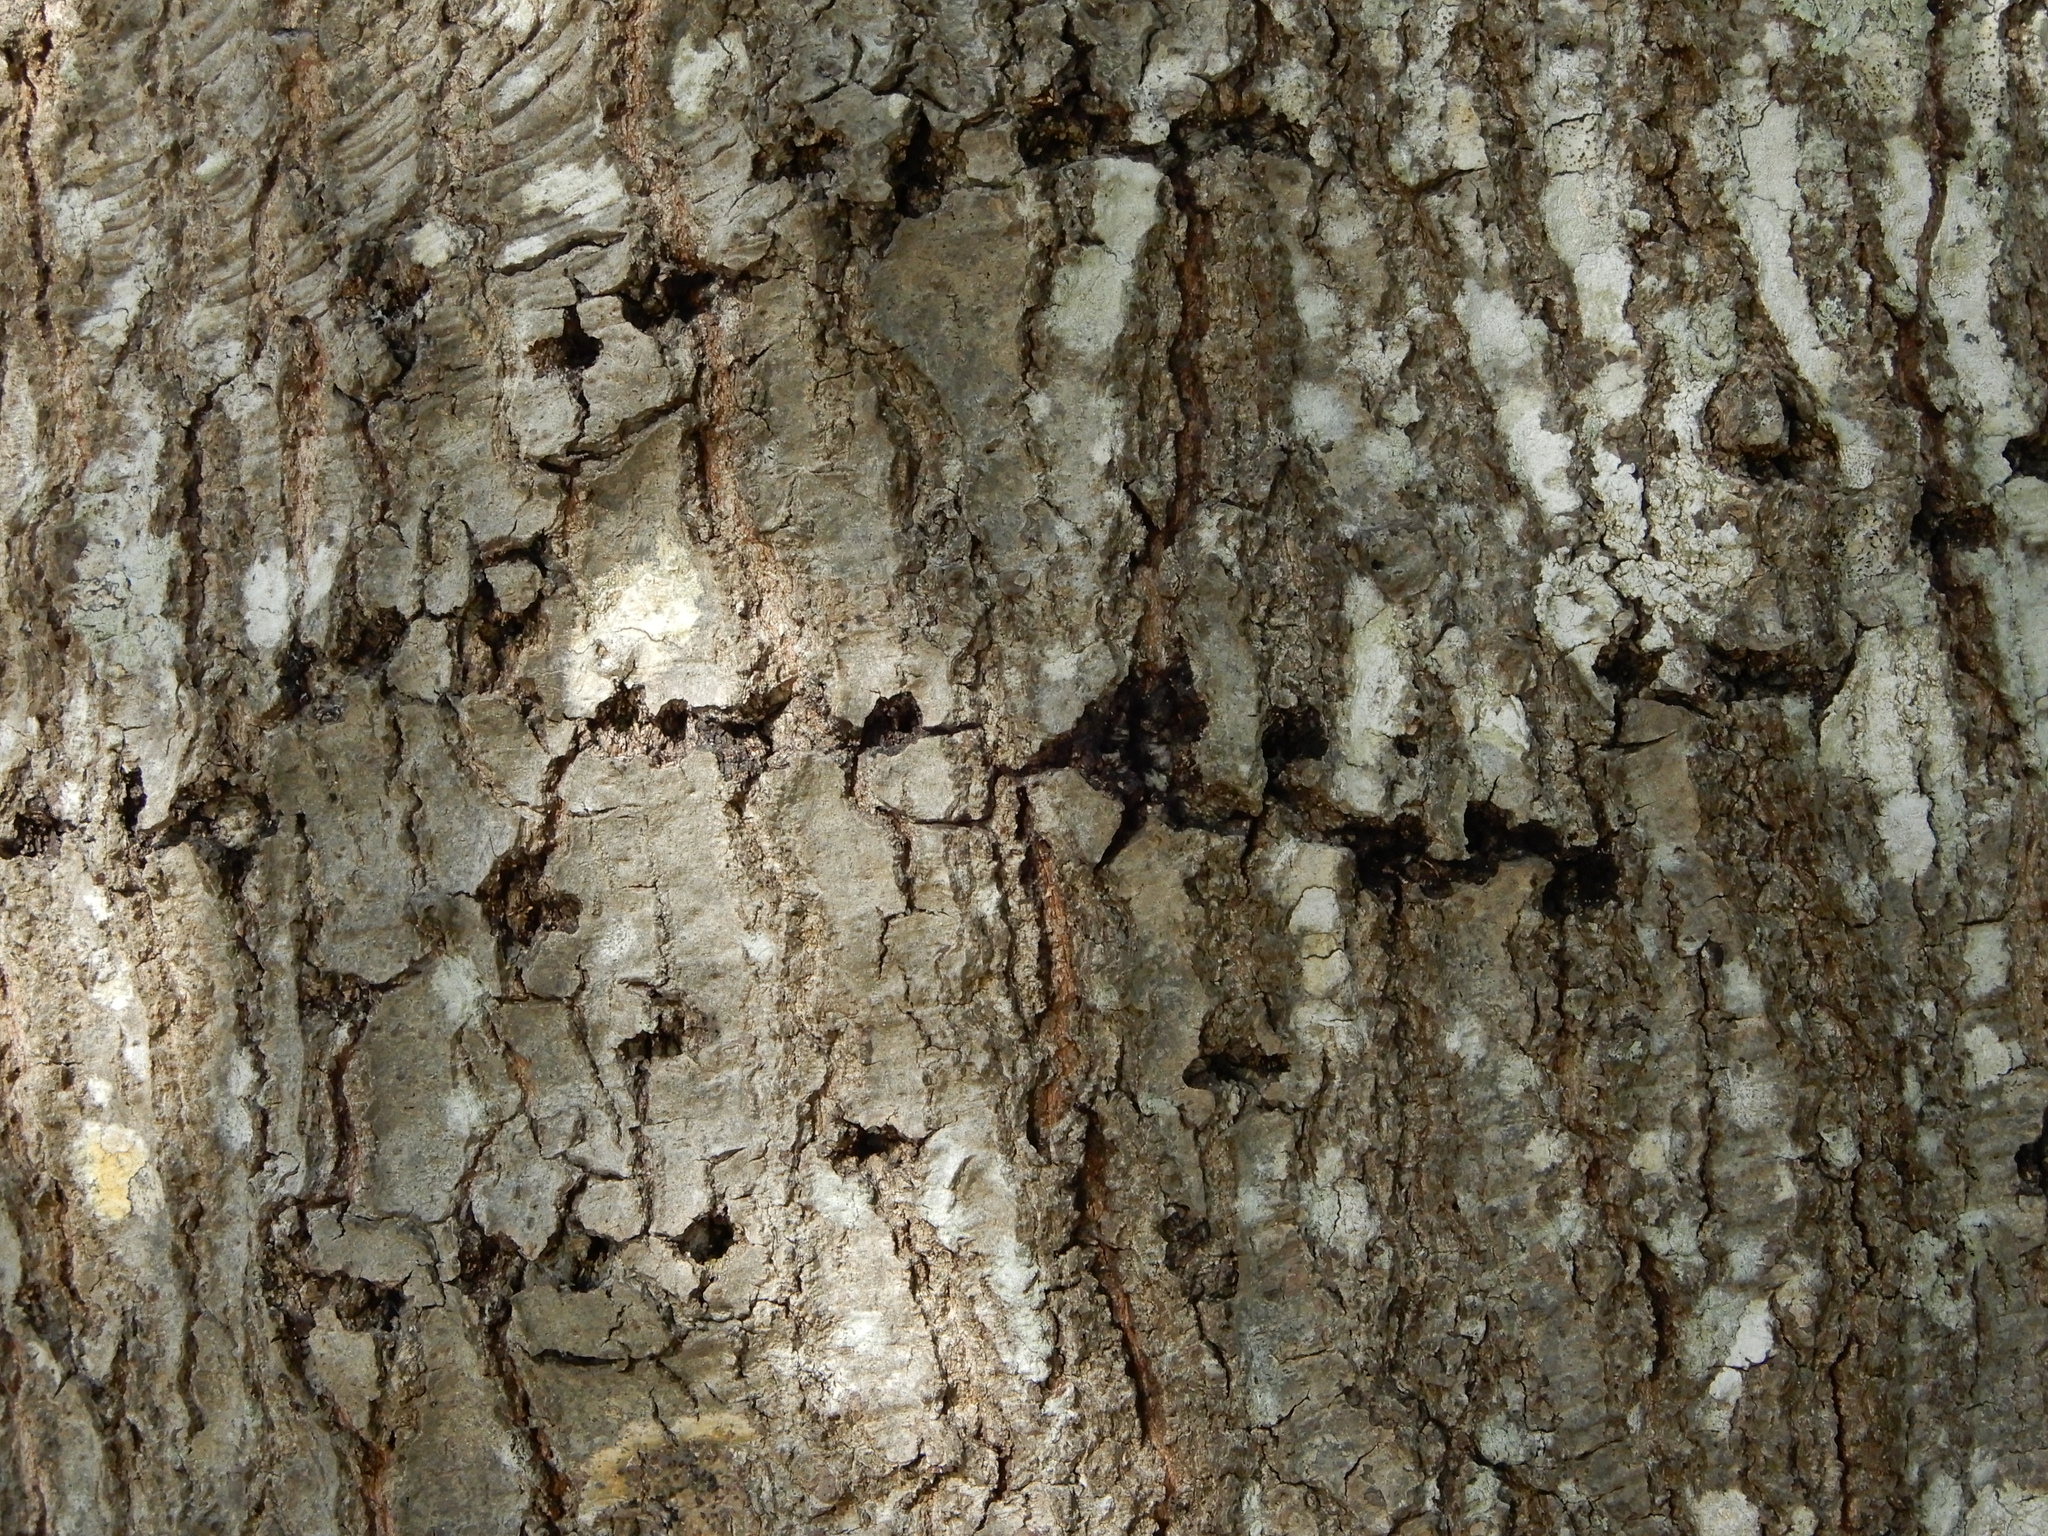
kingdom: Animalia
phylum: Chordata
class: Aves
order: Piciformes
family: Picidae
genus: Sphyrapicus
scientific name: Sphyrapicus varius
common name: Yellow-bellied sapsucker
